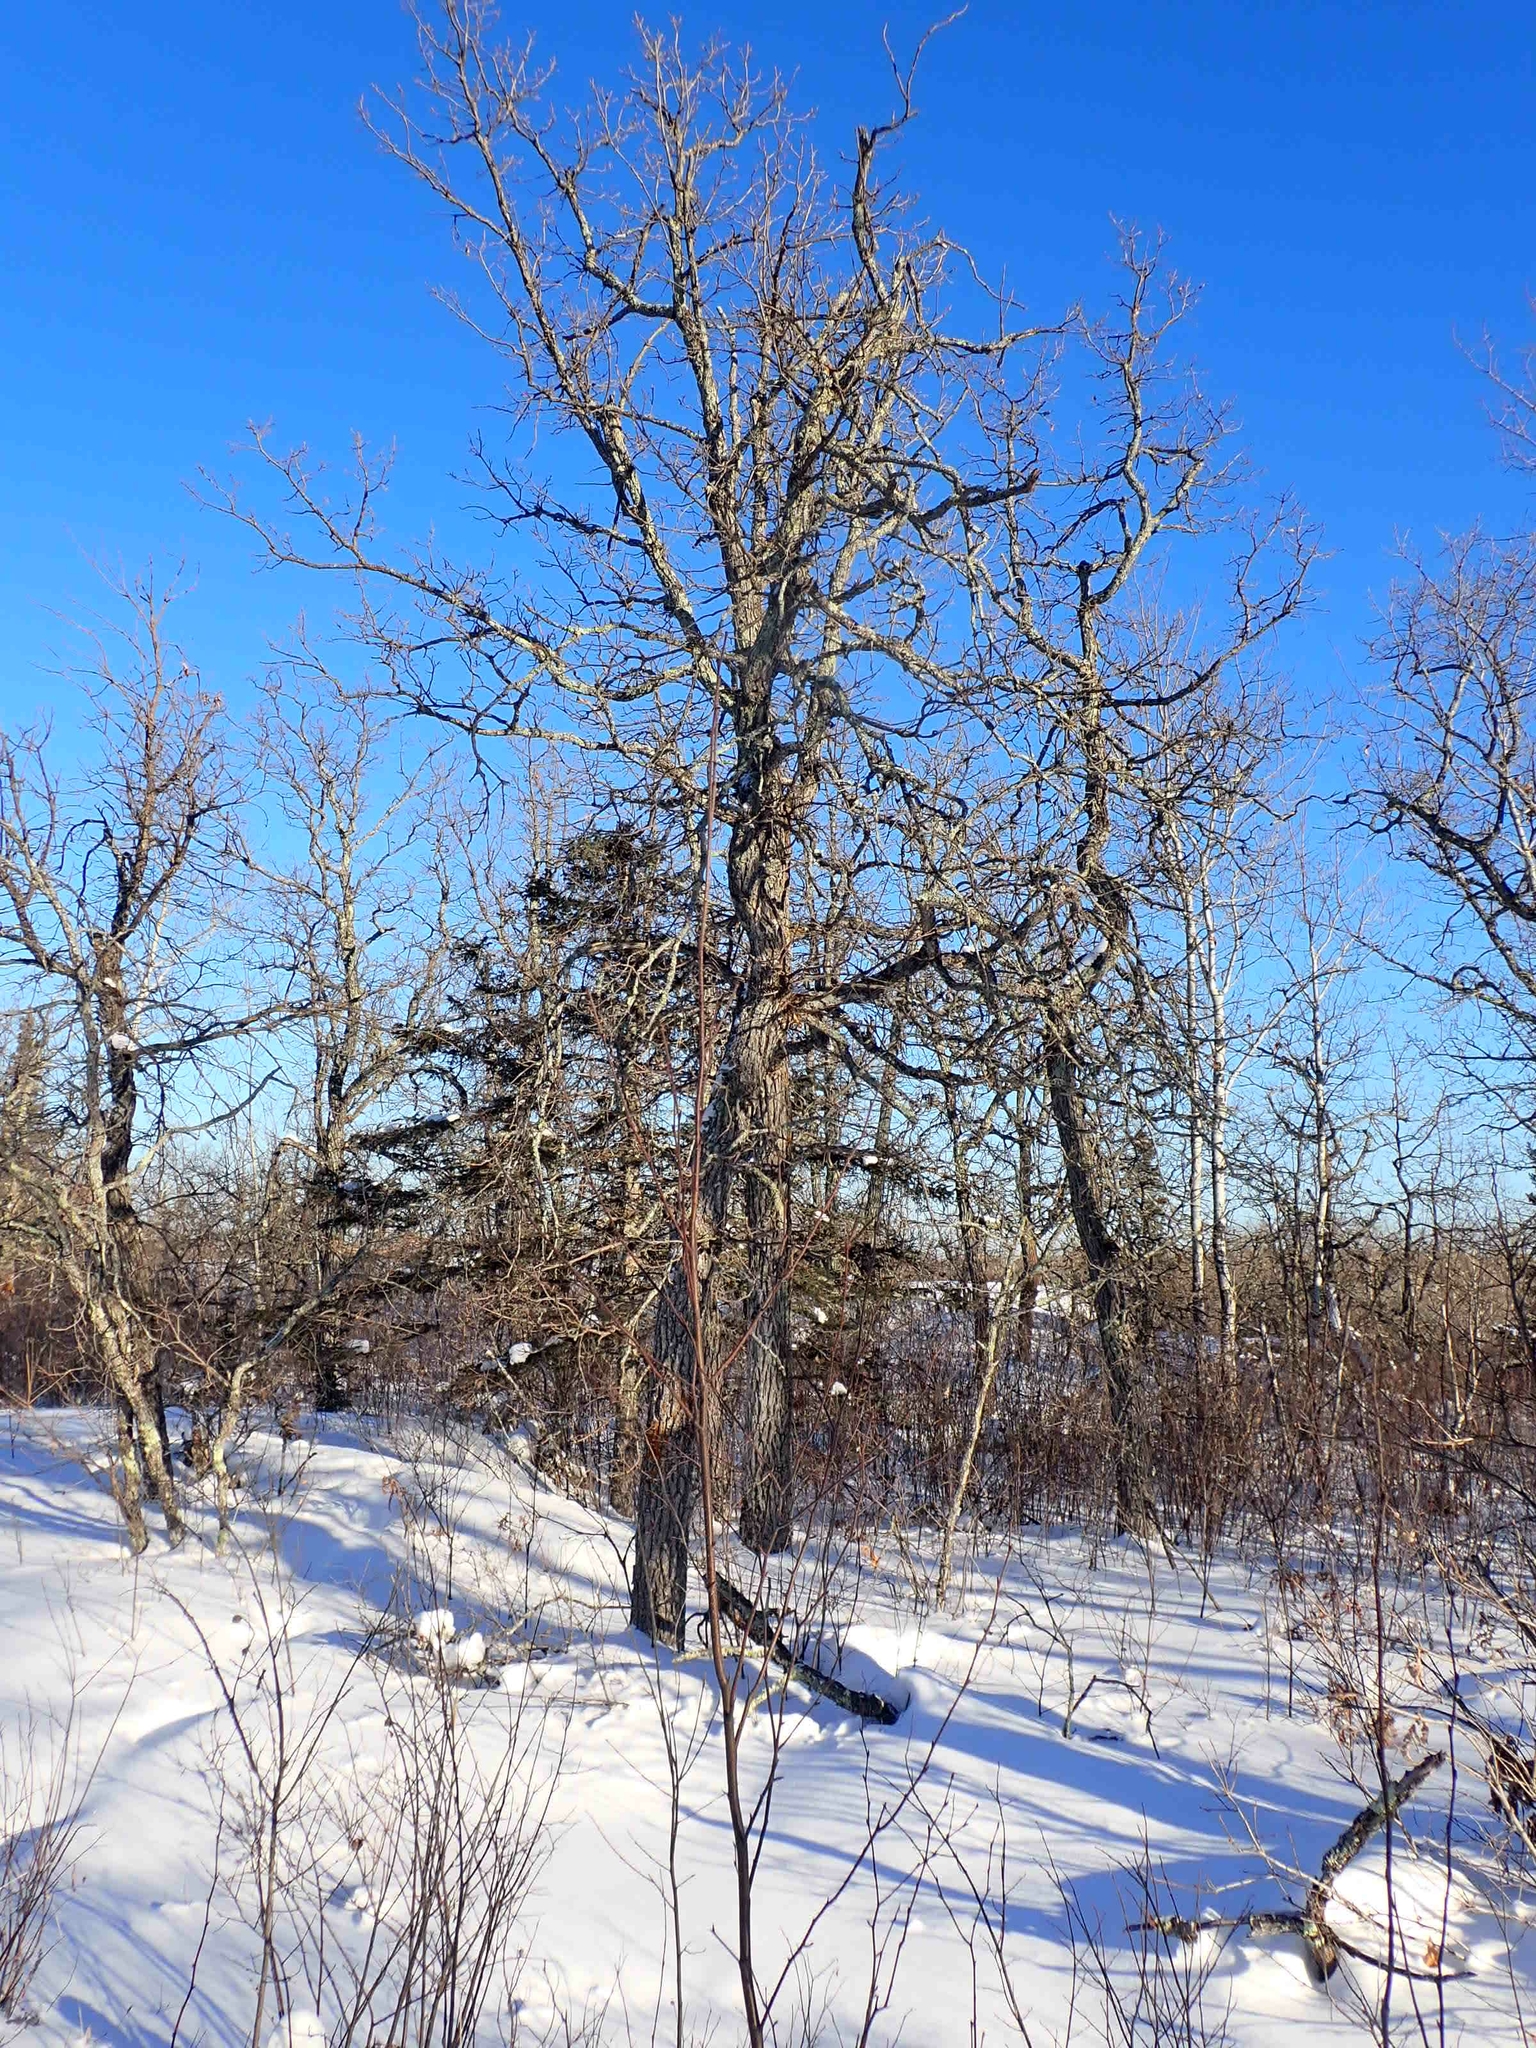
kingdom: Plantae
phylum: Tracheophyta
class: Magnoliopsida
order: Fagales
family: Fagaceae
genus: Quercus
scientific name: Quercus macrocarpa
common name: Bur oak
